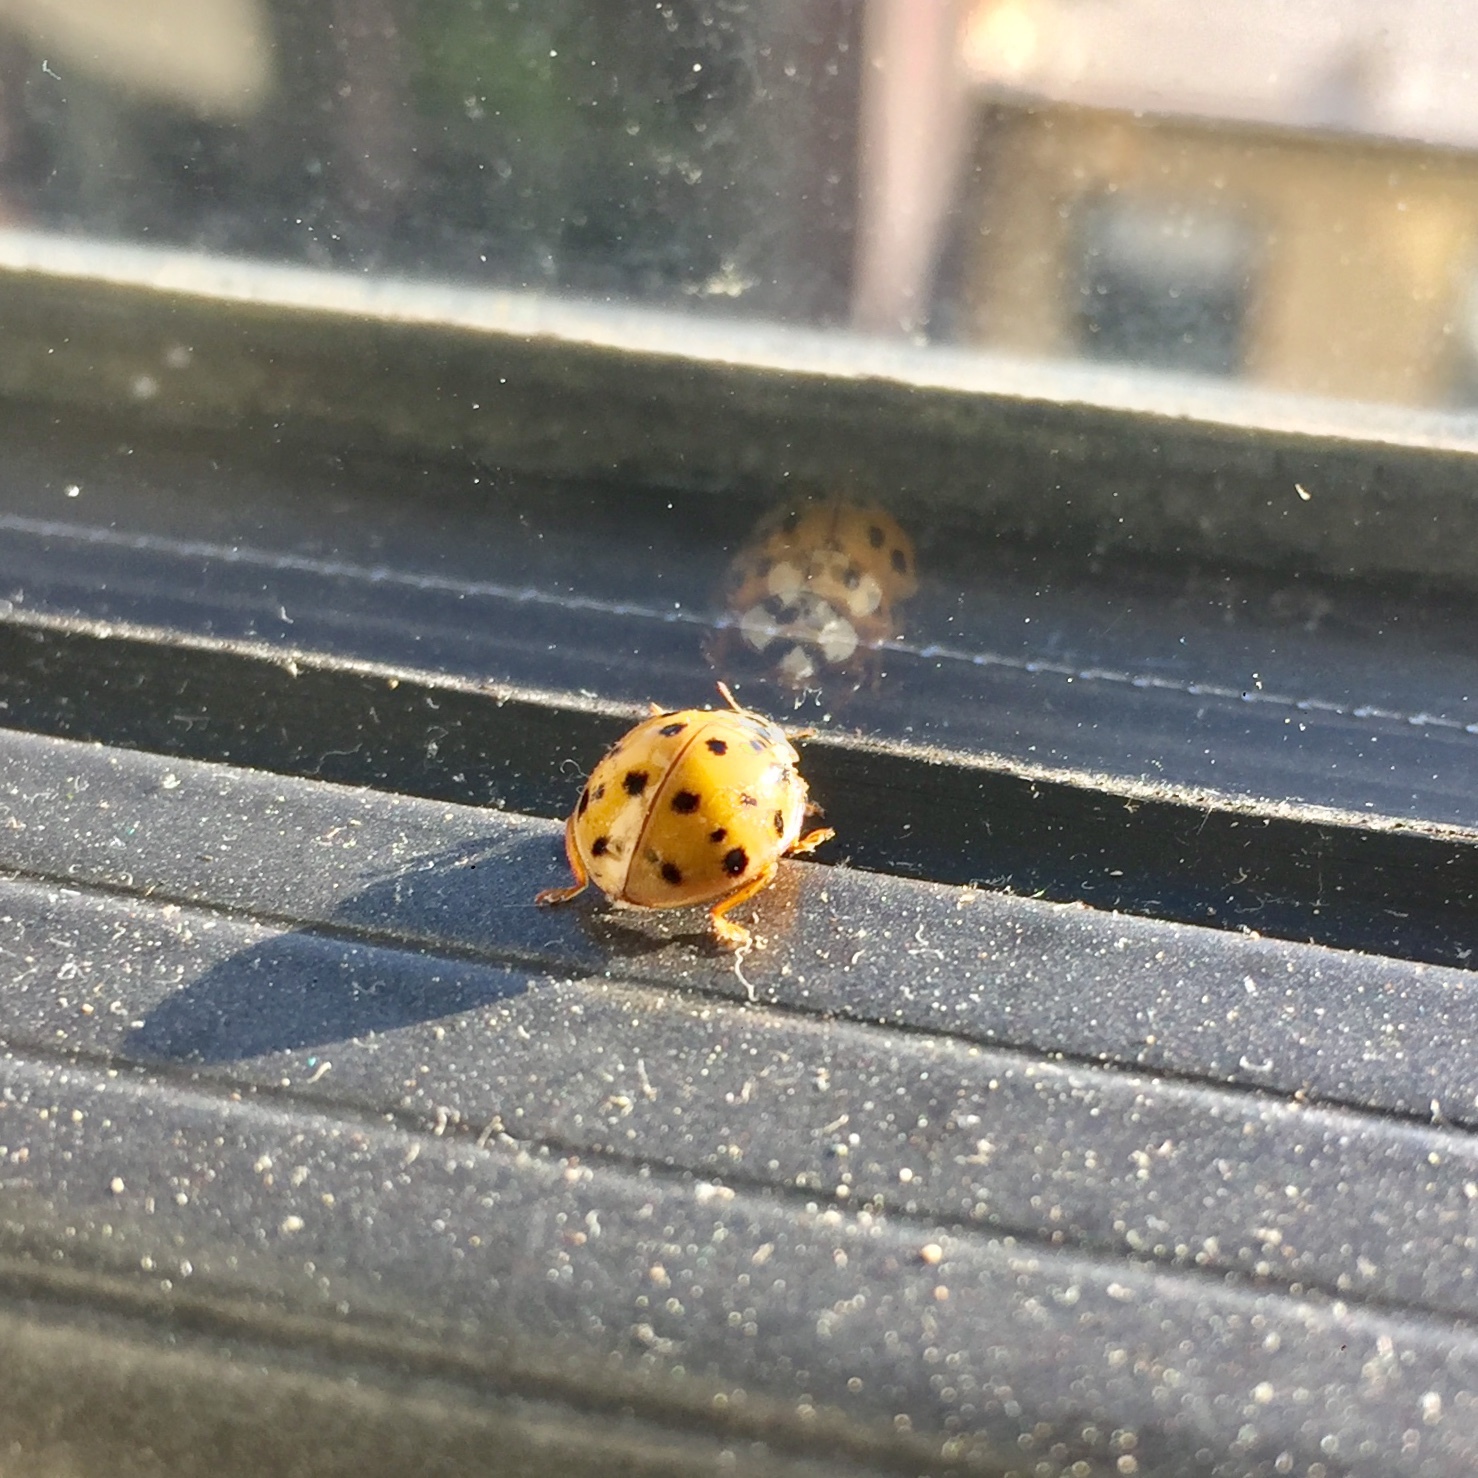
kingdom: Animalia
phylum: Arthropoda
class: Insecta
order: Coleoptera
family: Coccinellidae
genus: Harmonia
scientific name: Harmonia axyridis
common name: Harlequin ladybird
